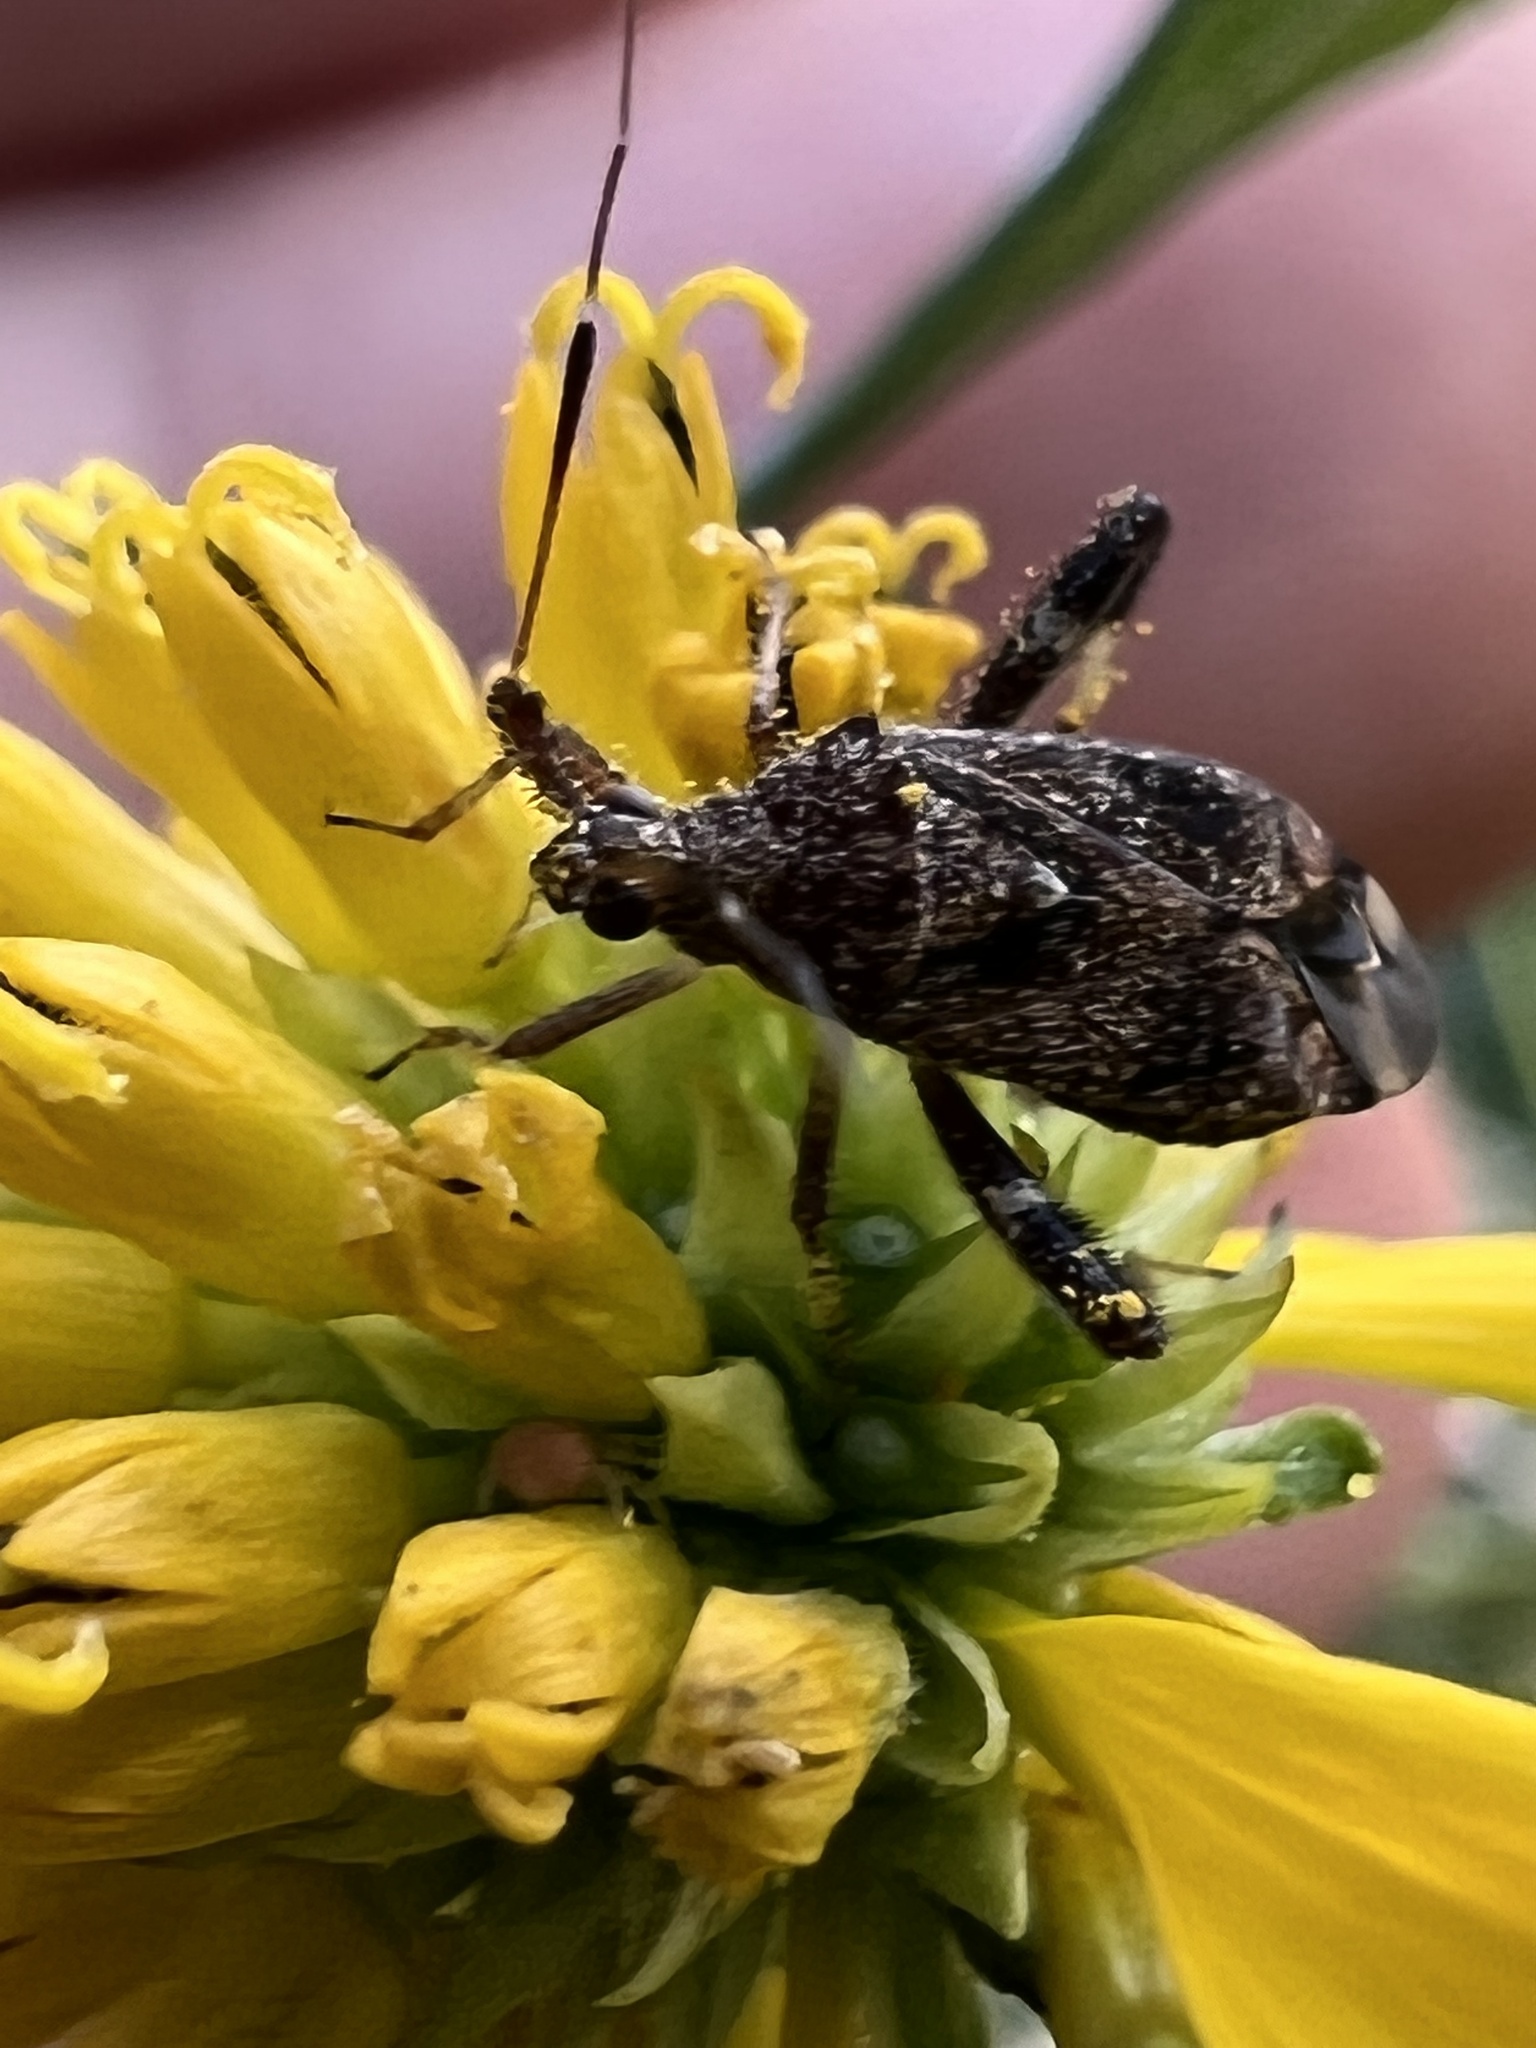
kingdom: Animalia
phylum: Arthropoda
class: Insecta
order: Hemiptera
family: Miridae
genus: Neurocolpus
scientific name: Neurocolpus nubilus
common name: Clouded plant bug
